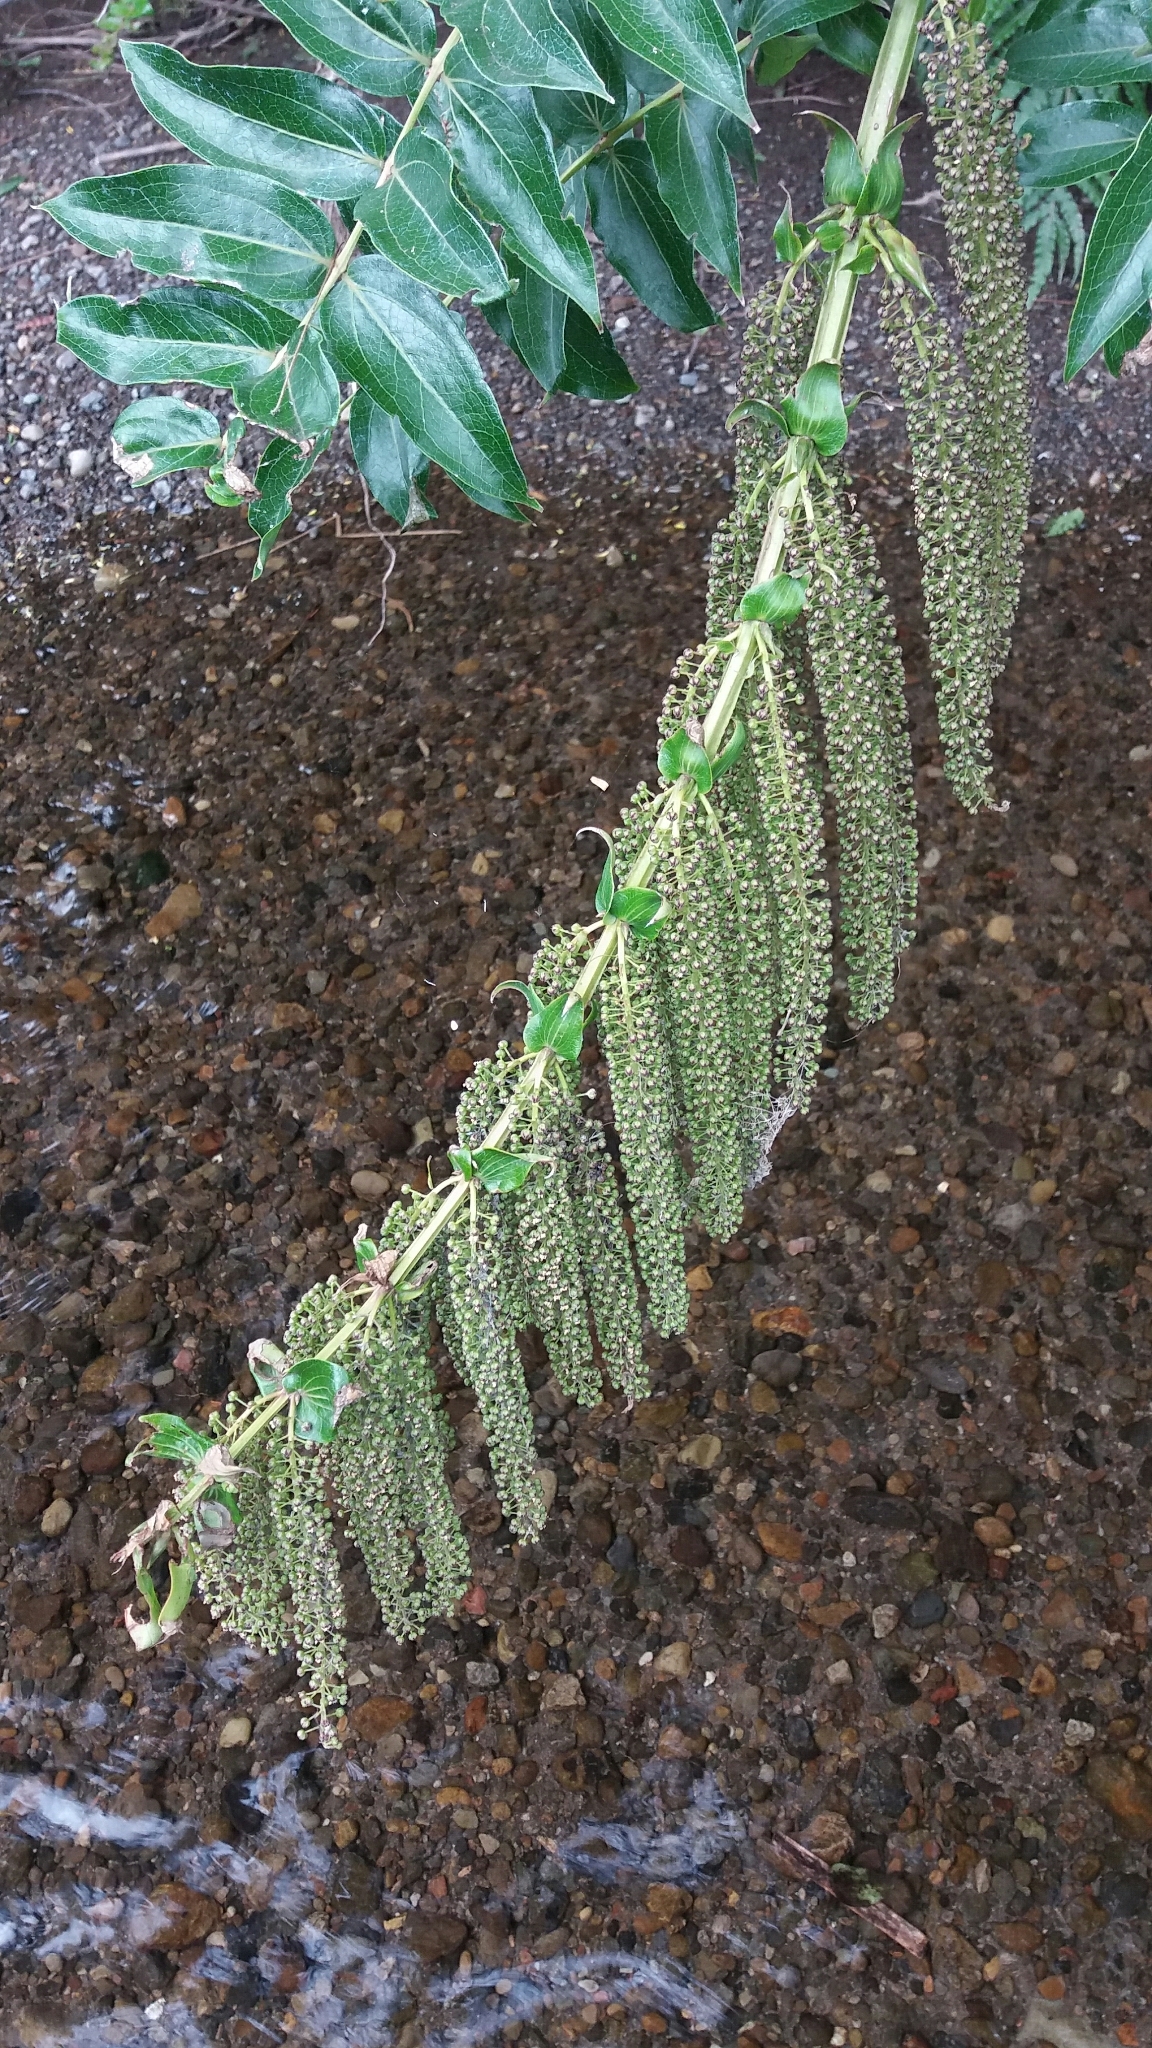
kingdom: Plantae
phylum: Tracheophyta
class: Magnoliopsida
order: Cucurbitales
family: Coriariaceae
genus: Coriaria
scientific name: Coriaria arborea
